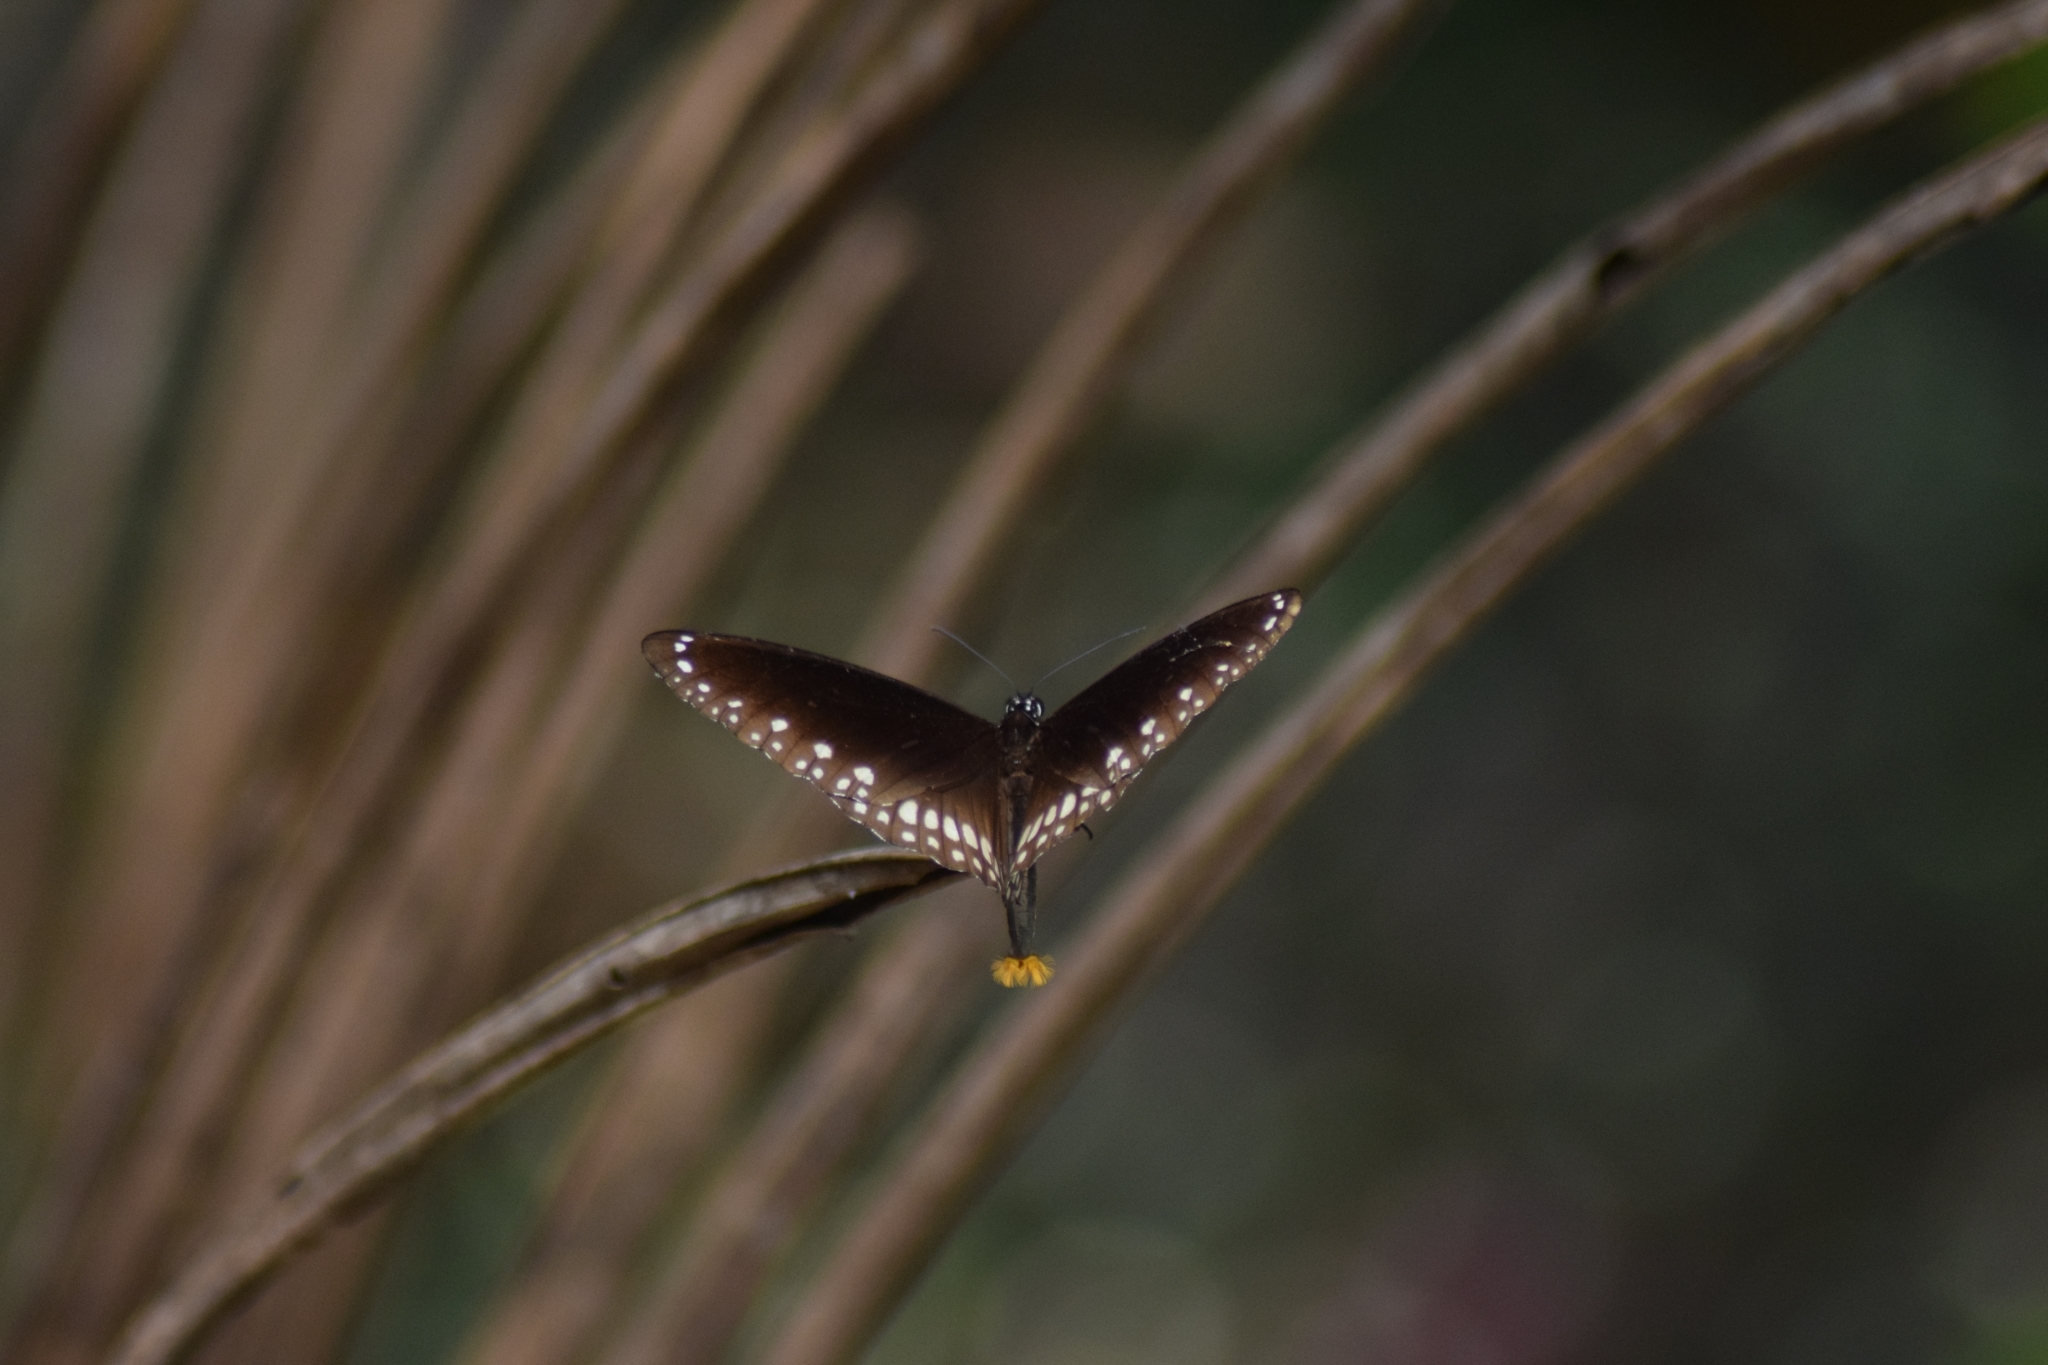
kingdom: Animalia
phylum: Arthropoda
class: Insecta
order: Lepidoptera
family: Nymphalidae
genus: Euploea
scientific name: Euploea core
